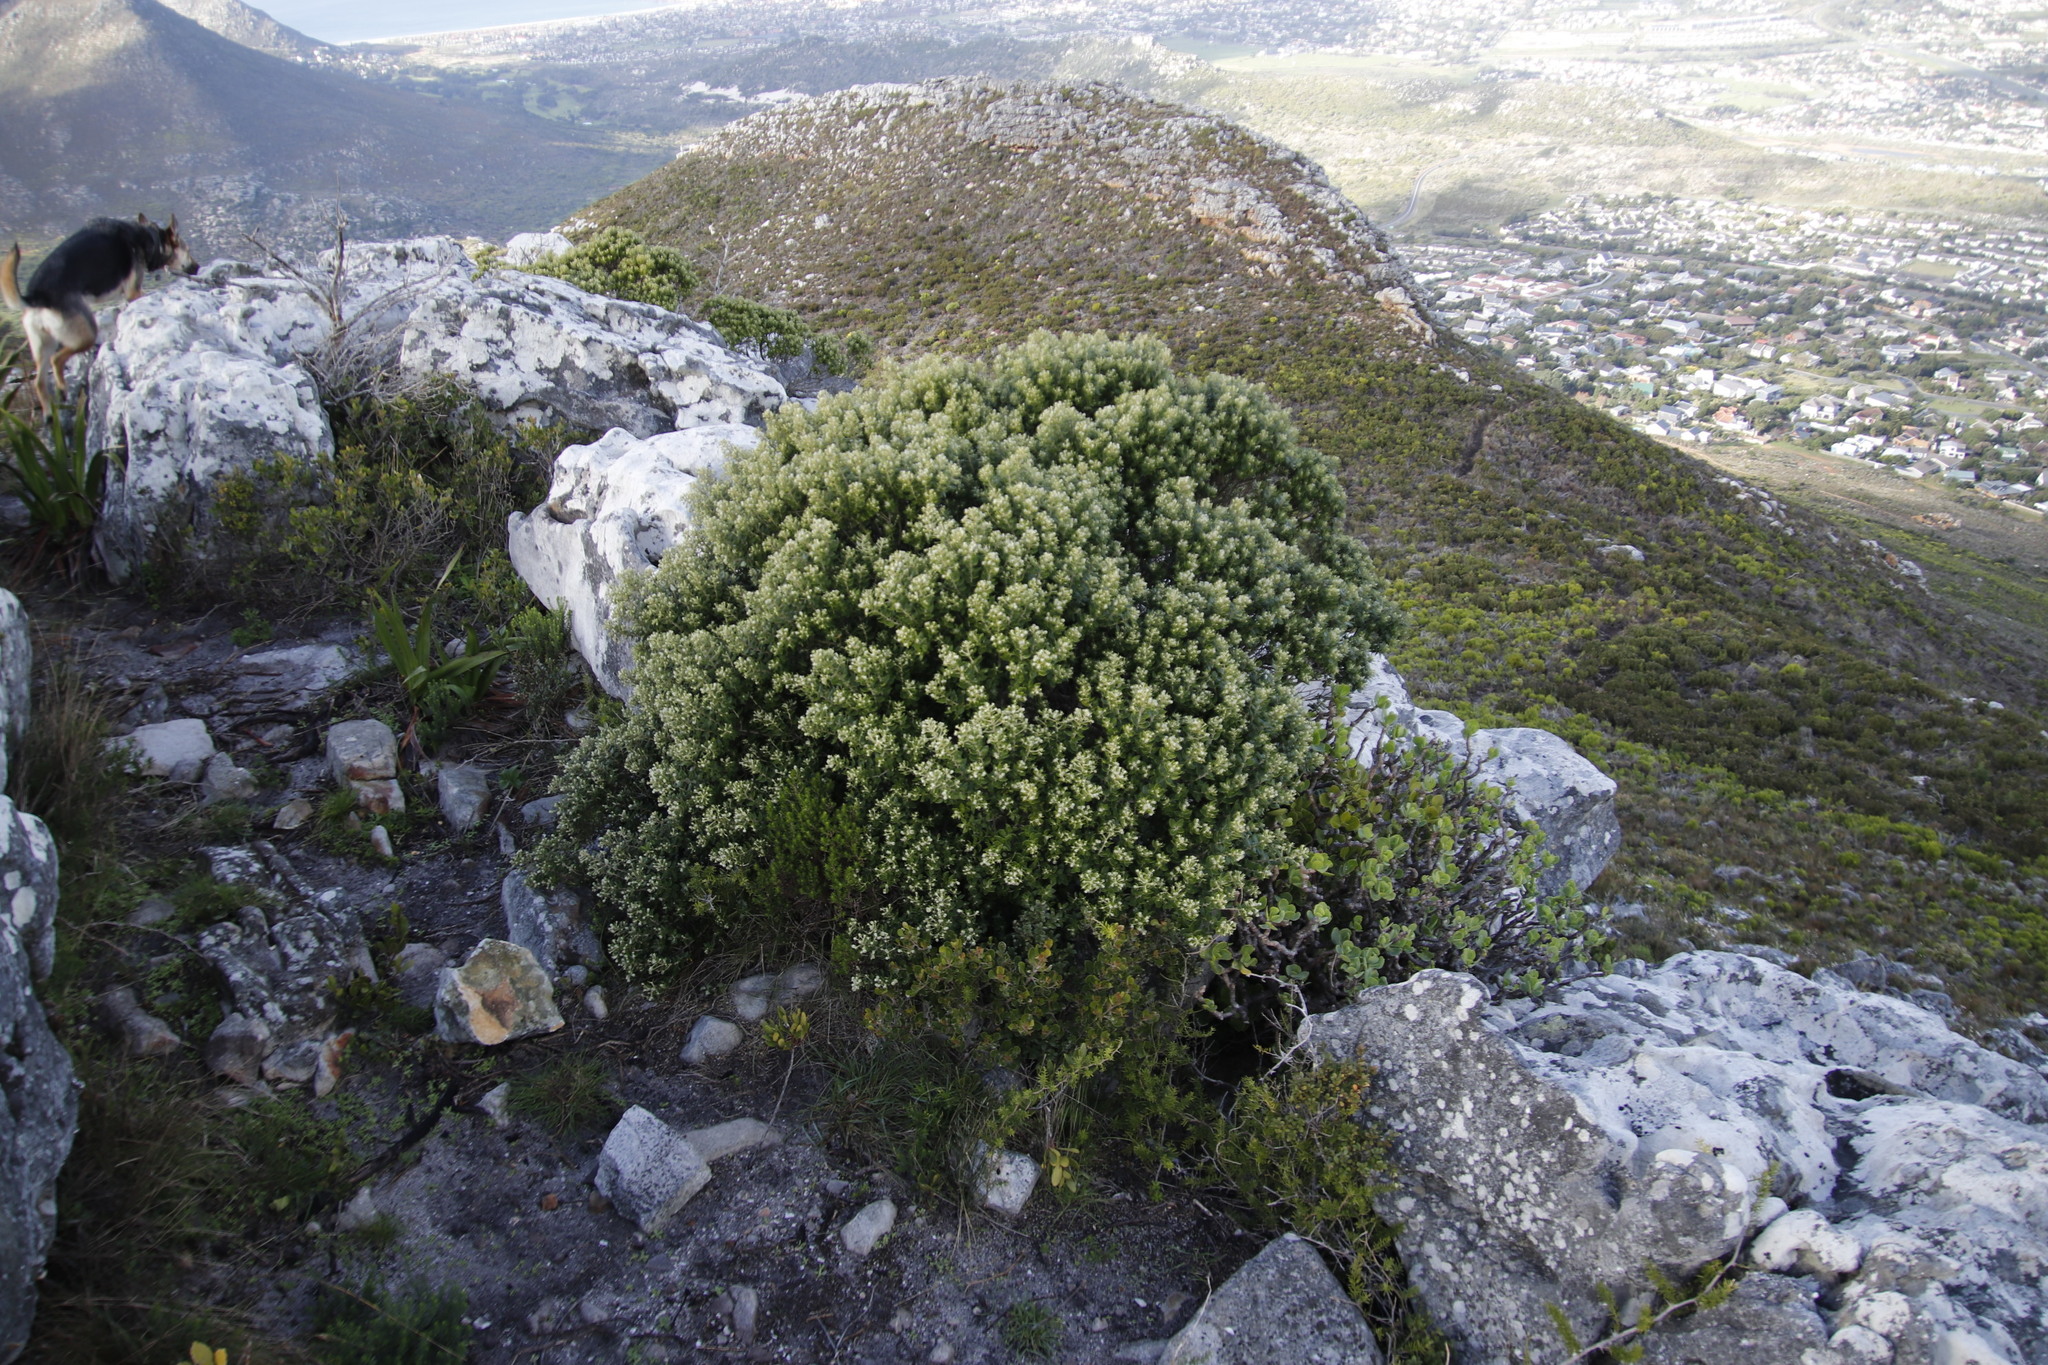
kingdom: Plantae
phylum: Tracheophyta
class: Magnoliopsida
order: Rosales
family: Rhamnaceae
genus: Phylica
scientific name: Phylica buxifolia
